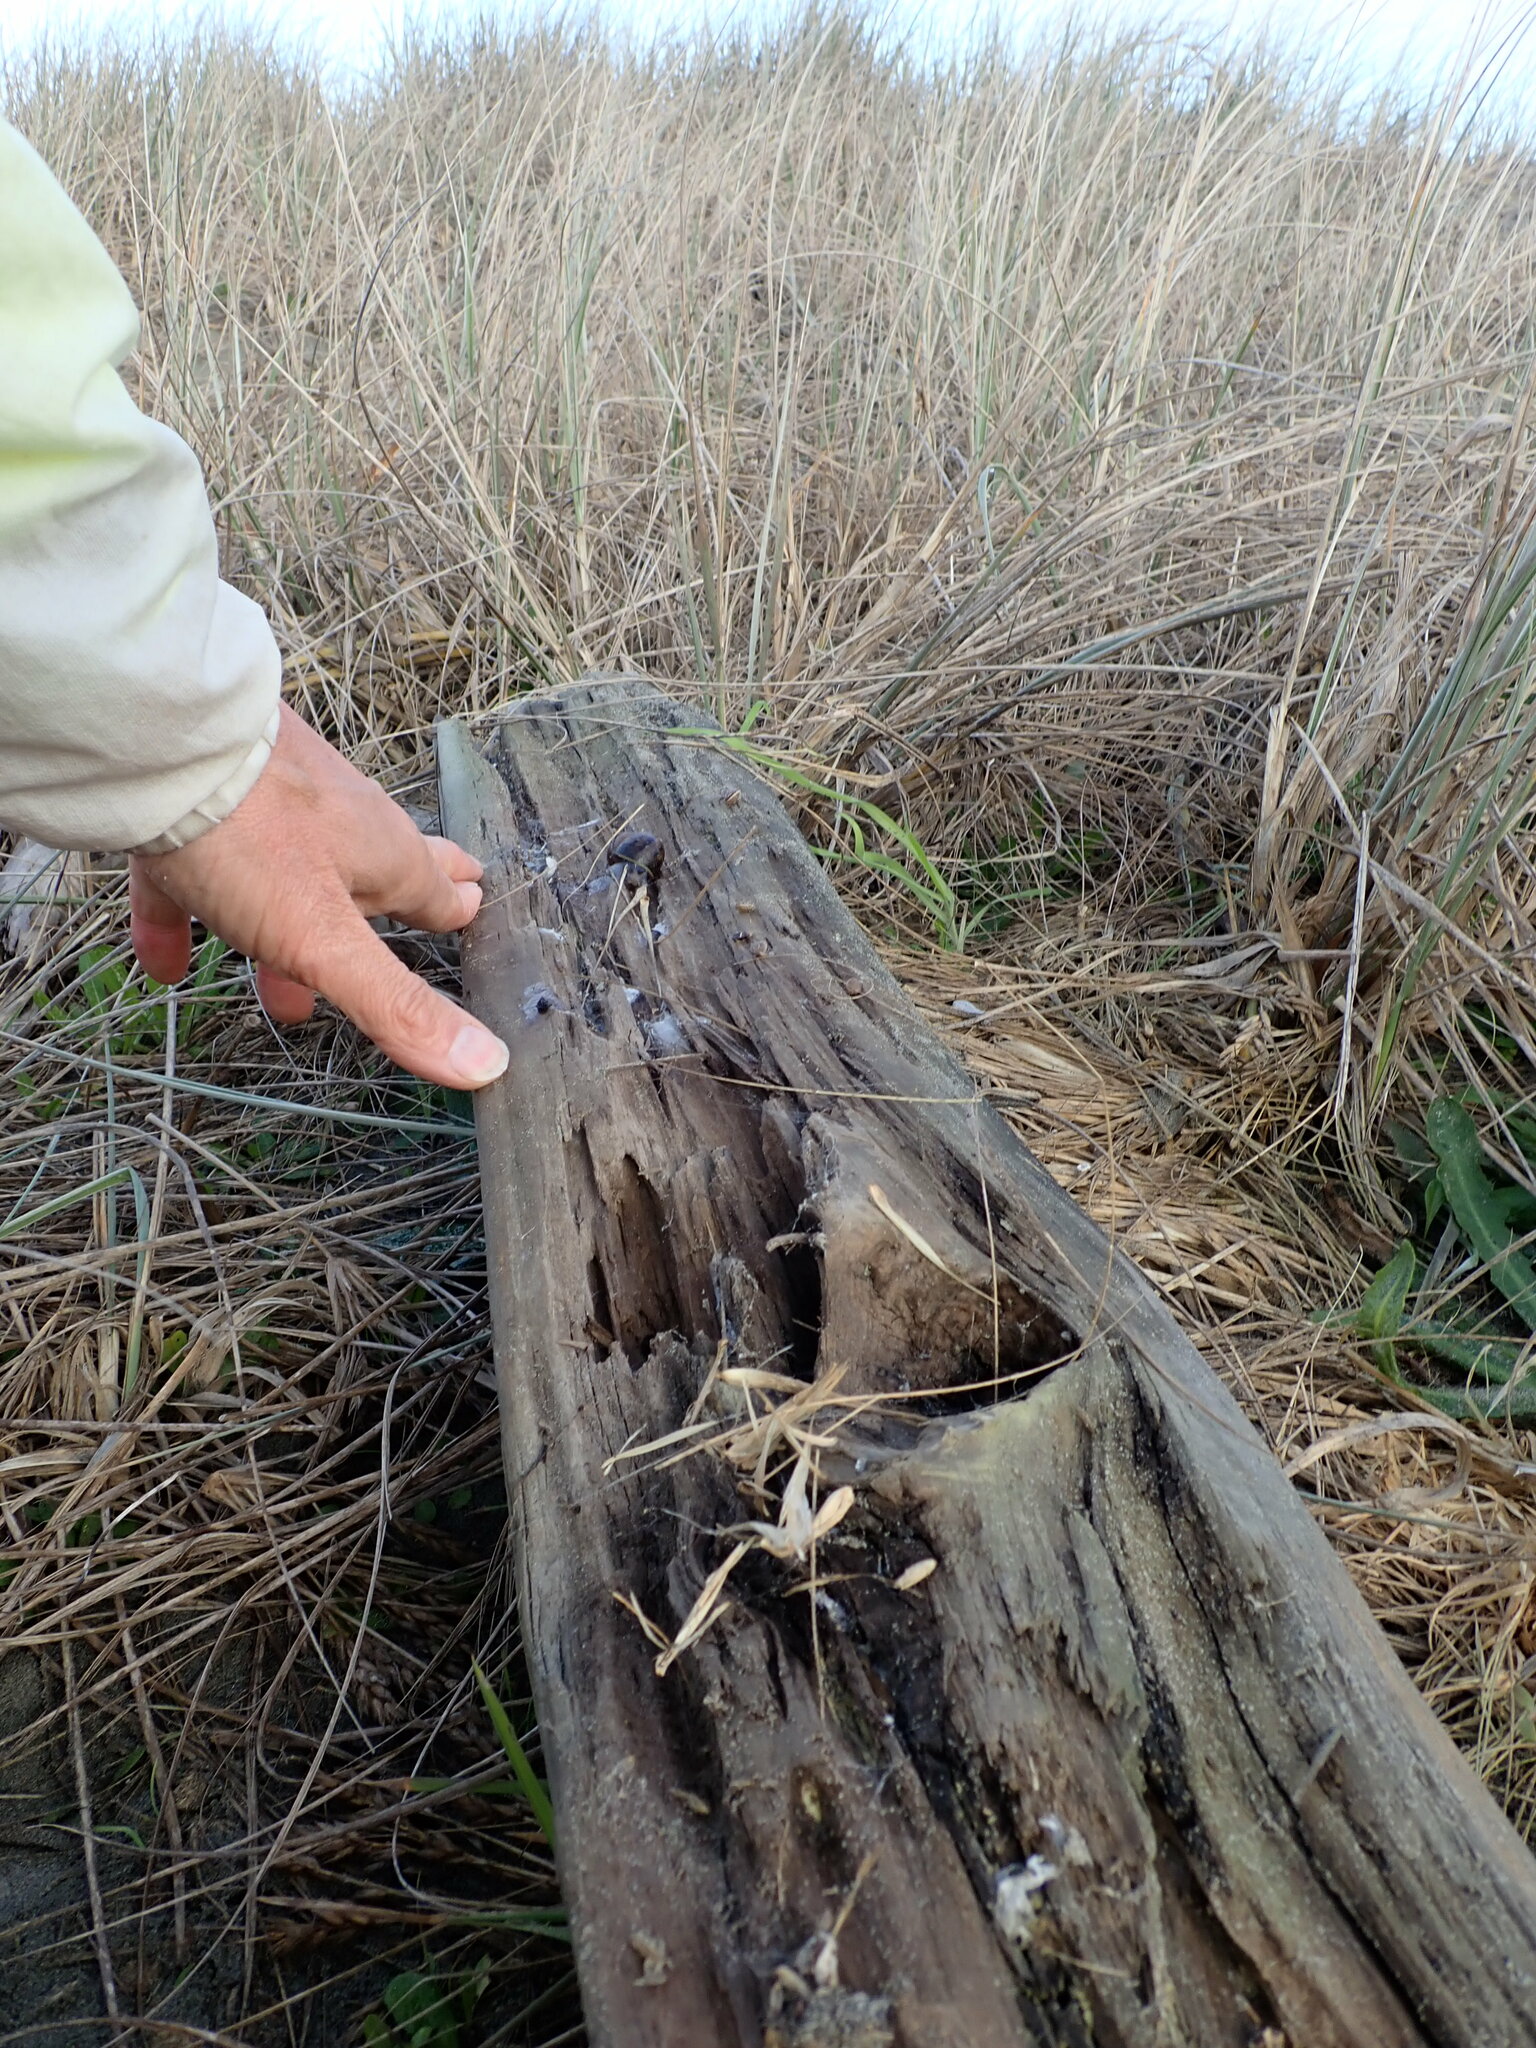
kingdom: Animalia
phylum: Mollusca
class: Gastropoda
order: Stylommatophora
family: Helicidae
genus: Cornu
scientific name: Cornu aspersum
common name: Brown garden snail
